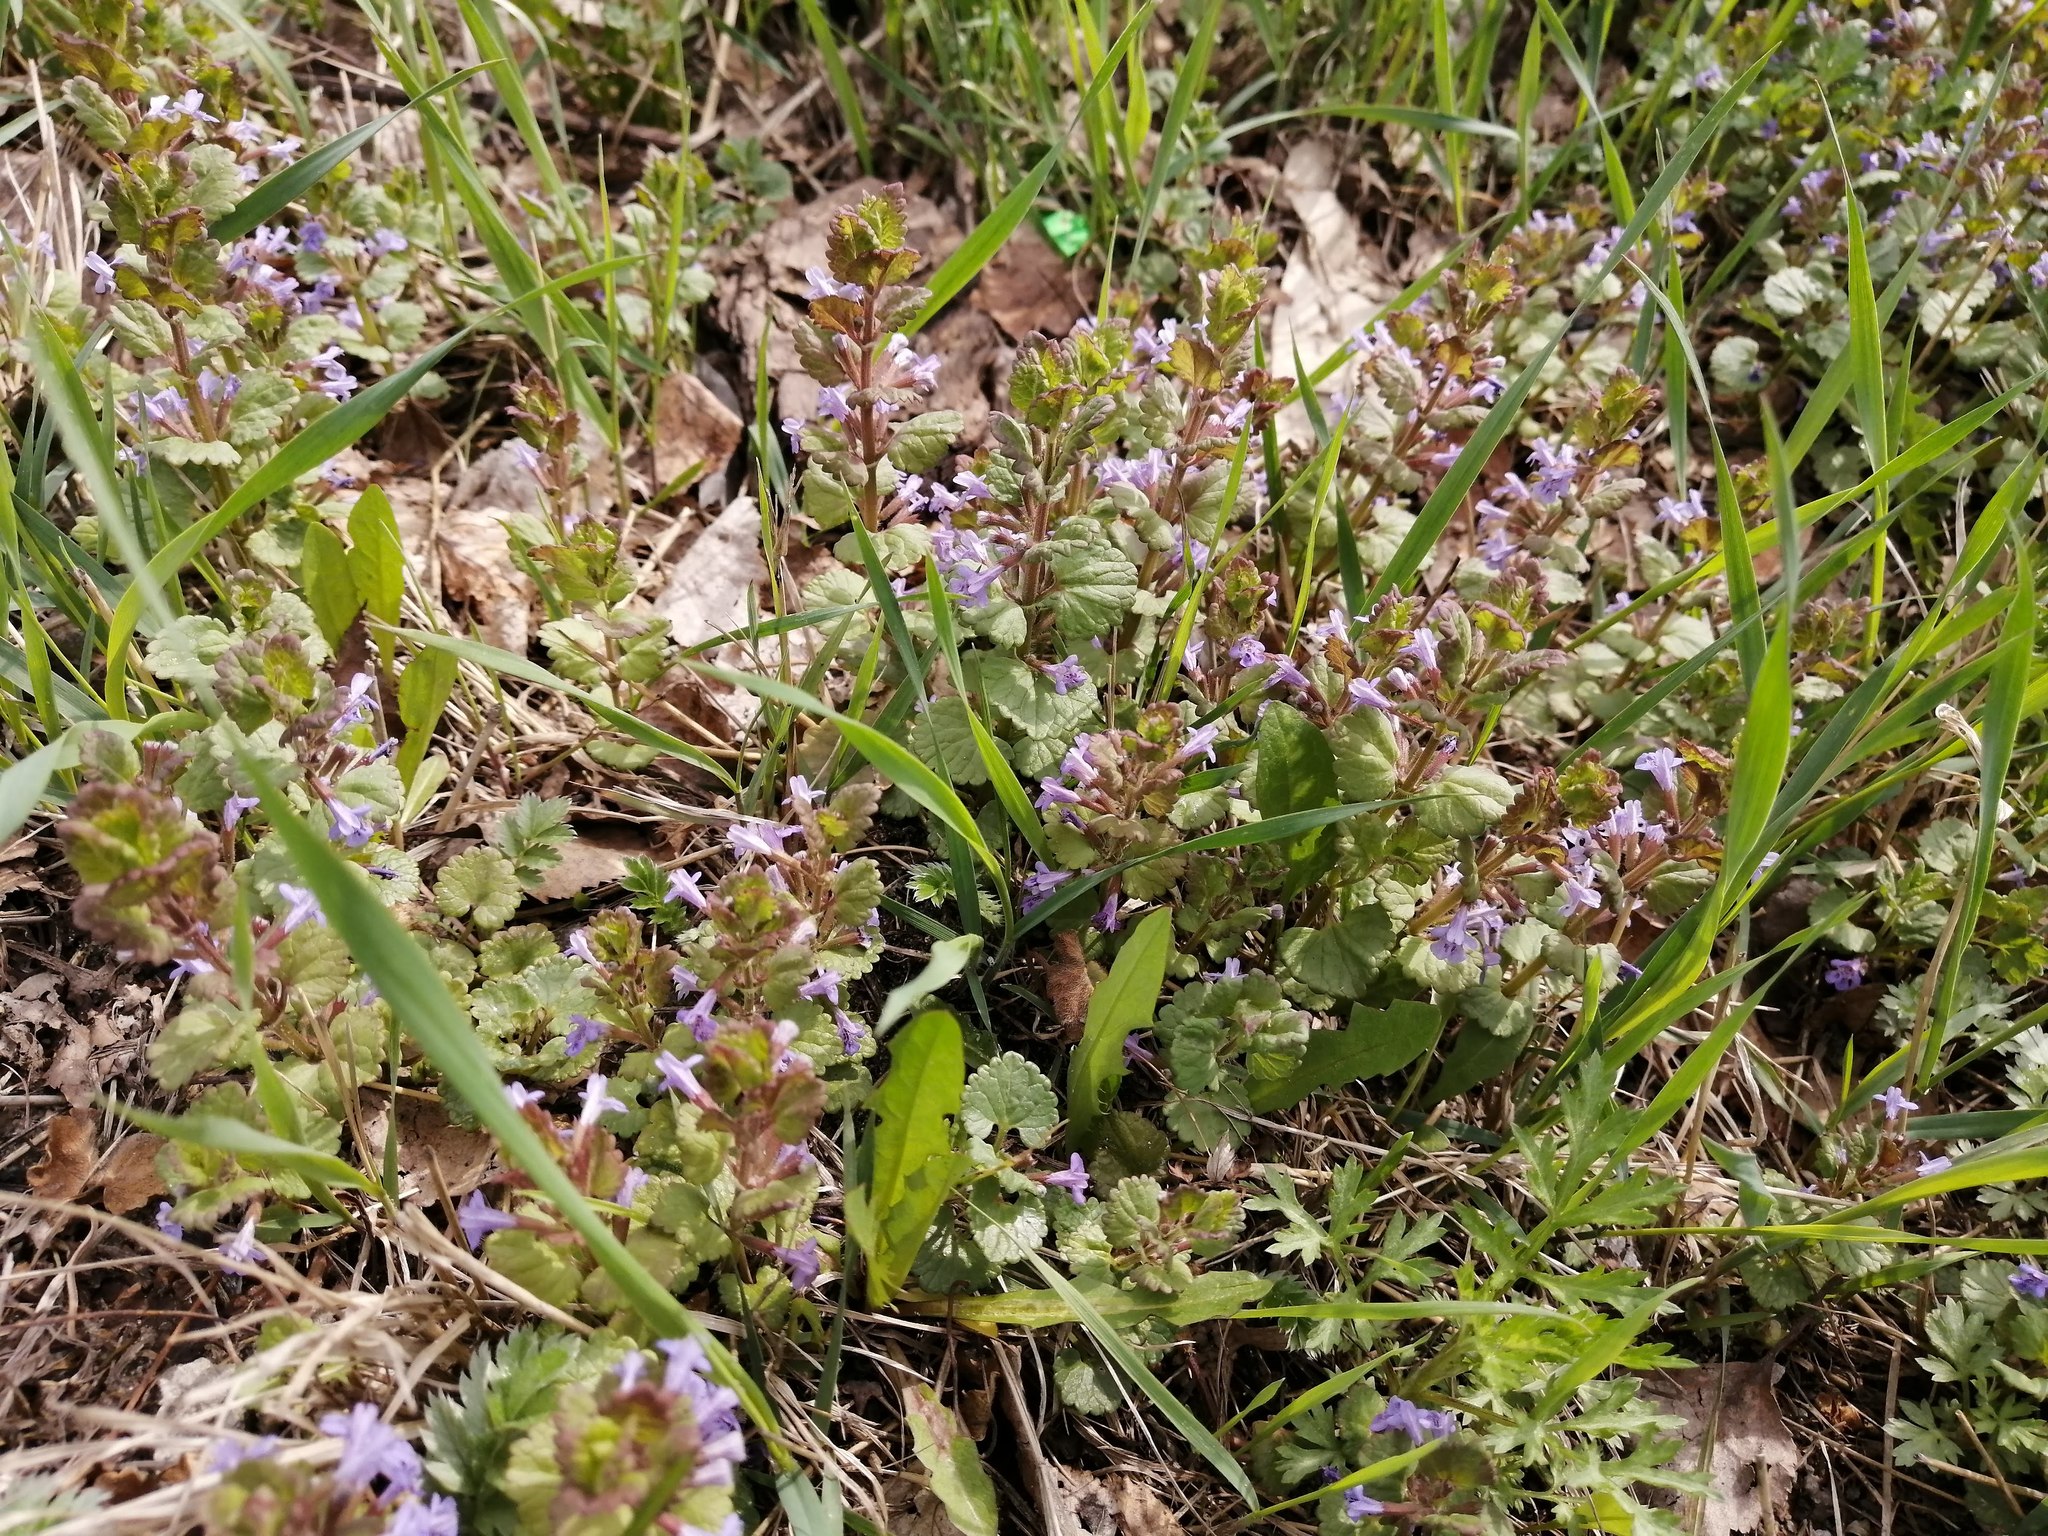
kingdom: Plantae
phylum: Tracheophyta
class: Magnoliopsida
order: Lamiales
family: Lamiaceae
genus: Glechoma
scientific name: Glechoma hederacea
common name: Ground ivy
